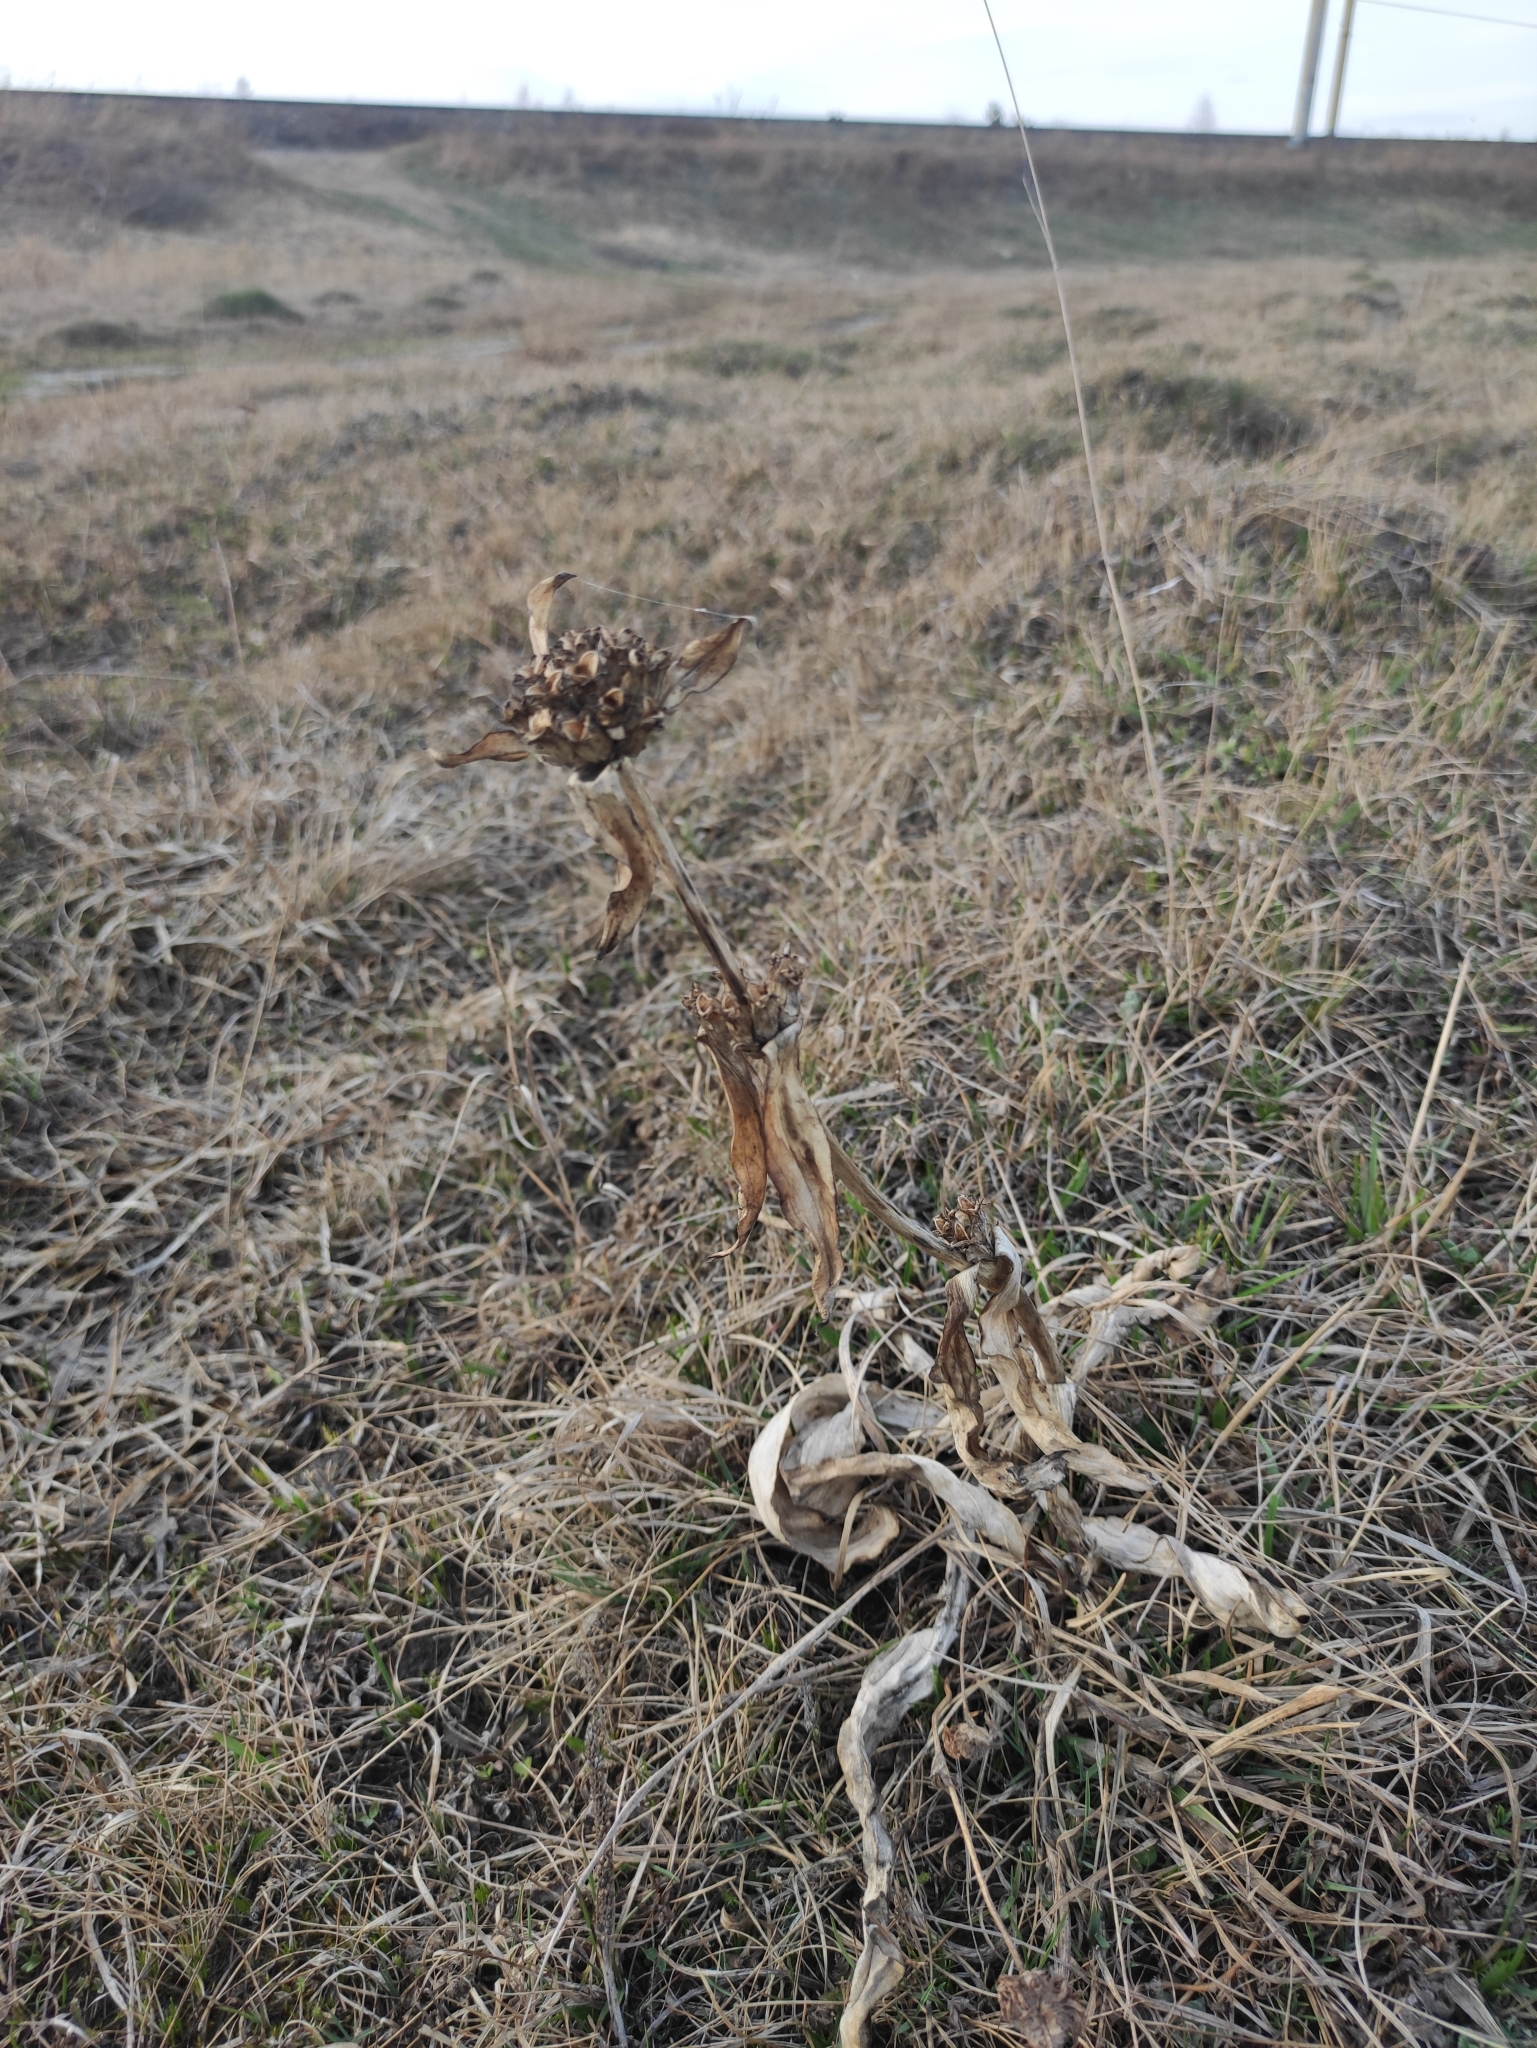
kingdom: Plantae
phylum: Tracheophyta
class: Magnoliopsida
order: Gentianales
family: Gentianaceae
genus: Gentiana
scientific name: Gentiana macrophylla
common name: Large-leaf gentian
